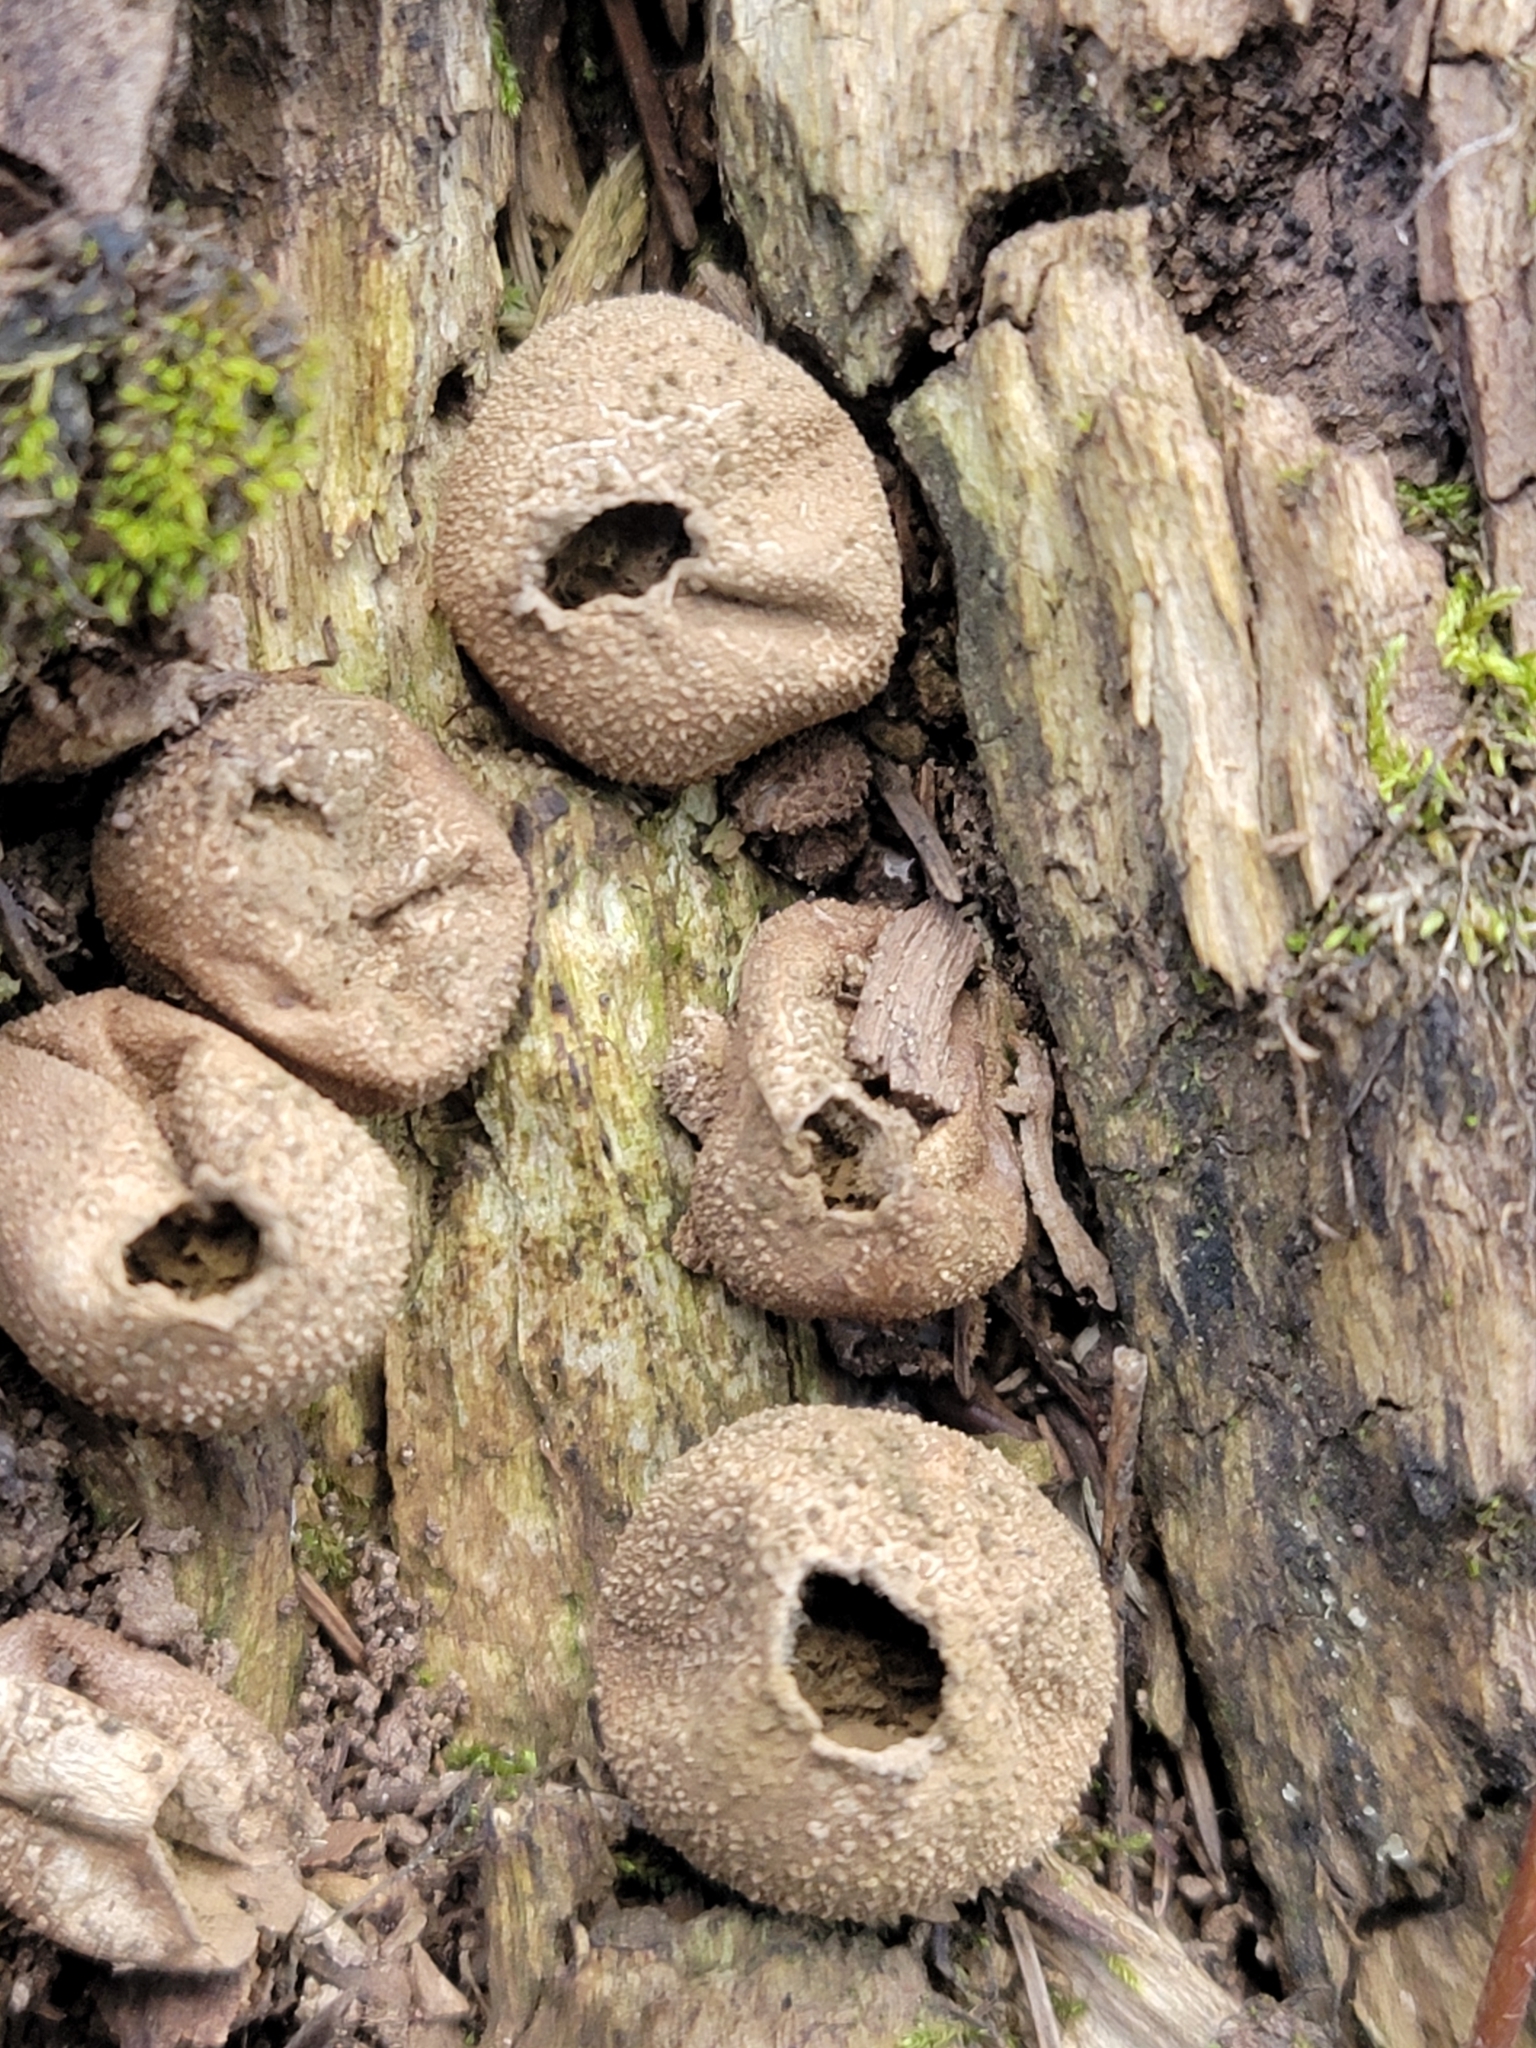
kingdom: Fungi
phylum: Basidiomycota
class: Agaricomycetes
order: Agaricales
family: Lycoperdaceae
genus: Apioperdon
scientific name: Apioperdon pyriforme
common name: Pear-shaped puffball
